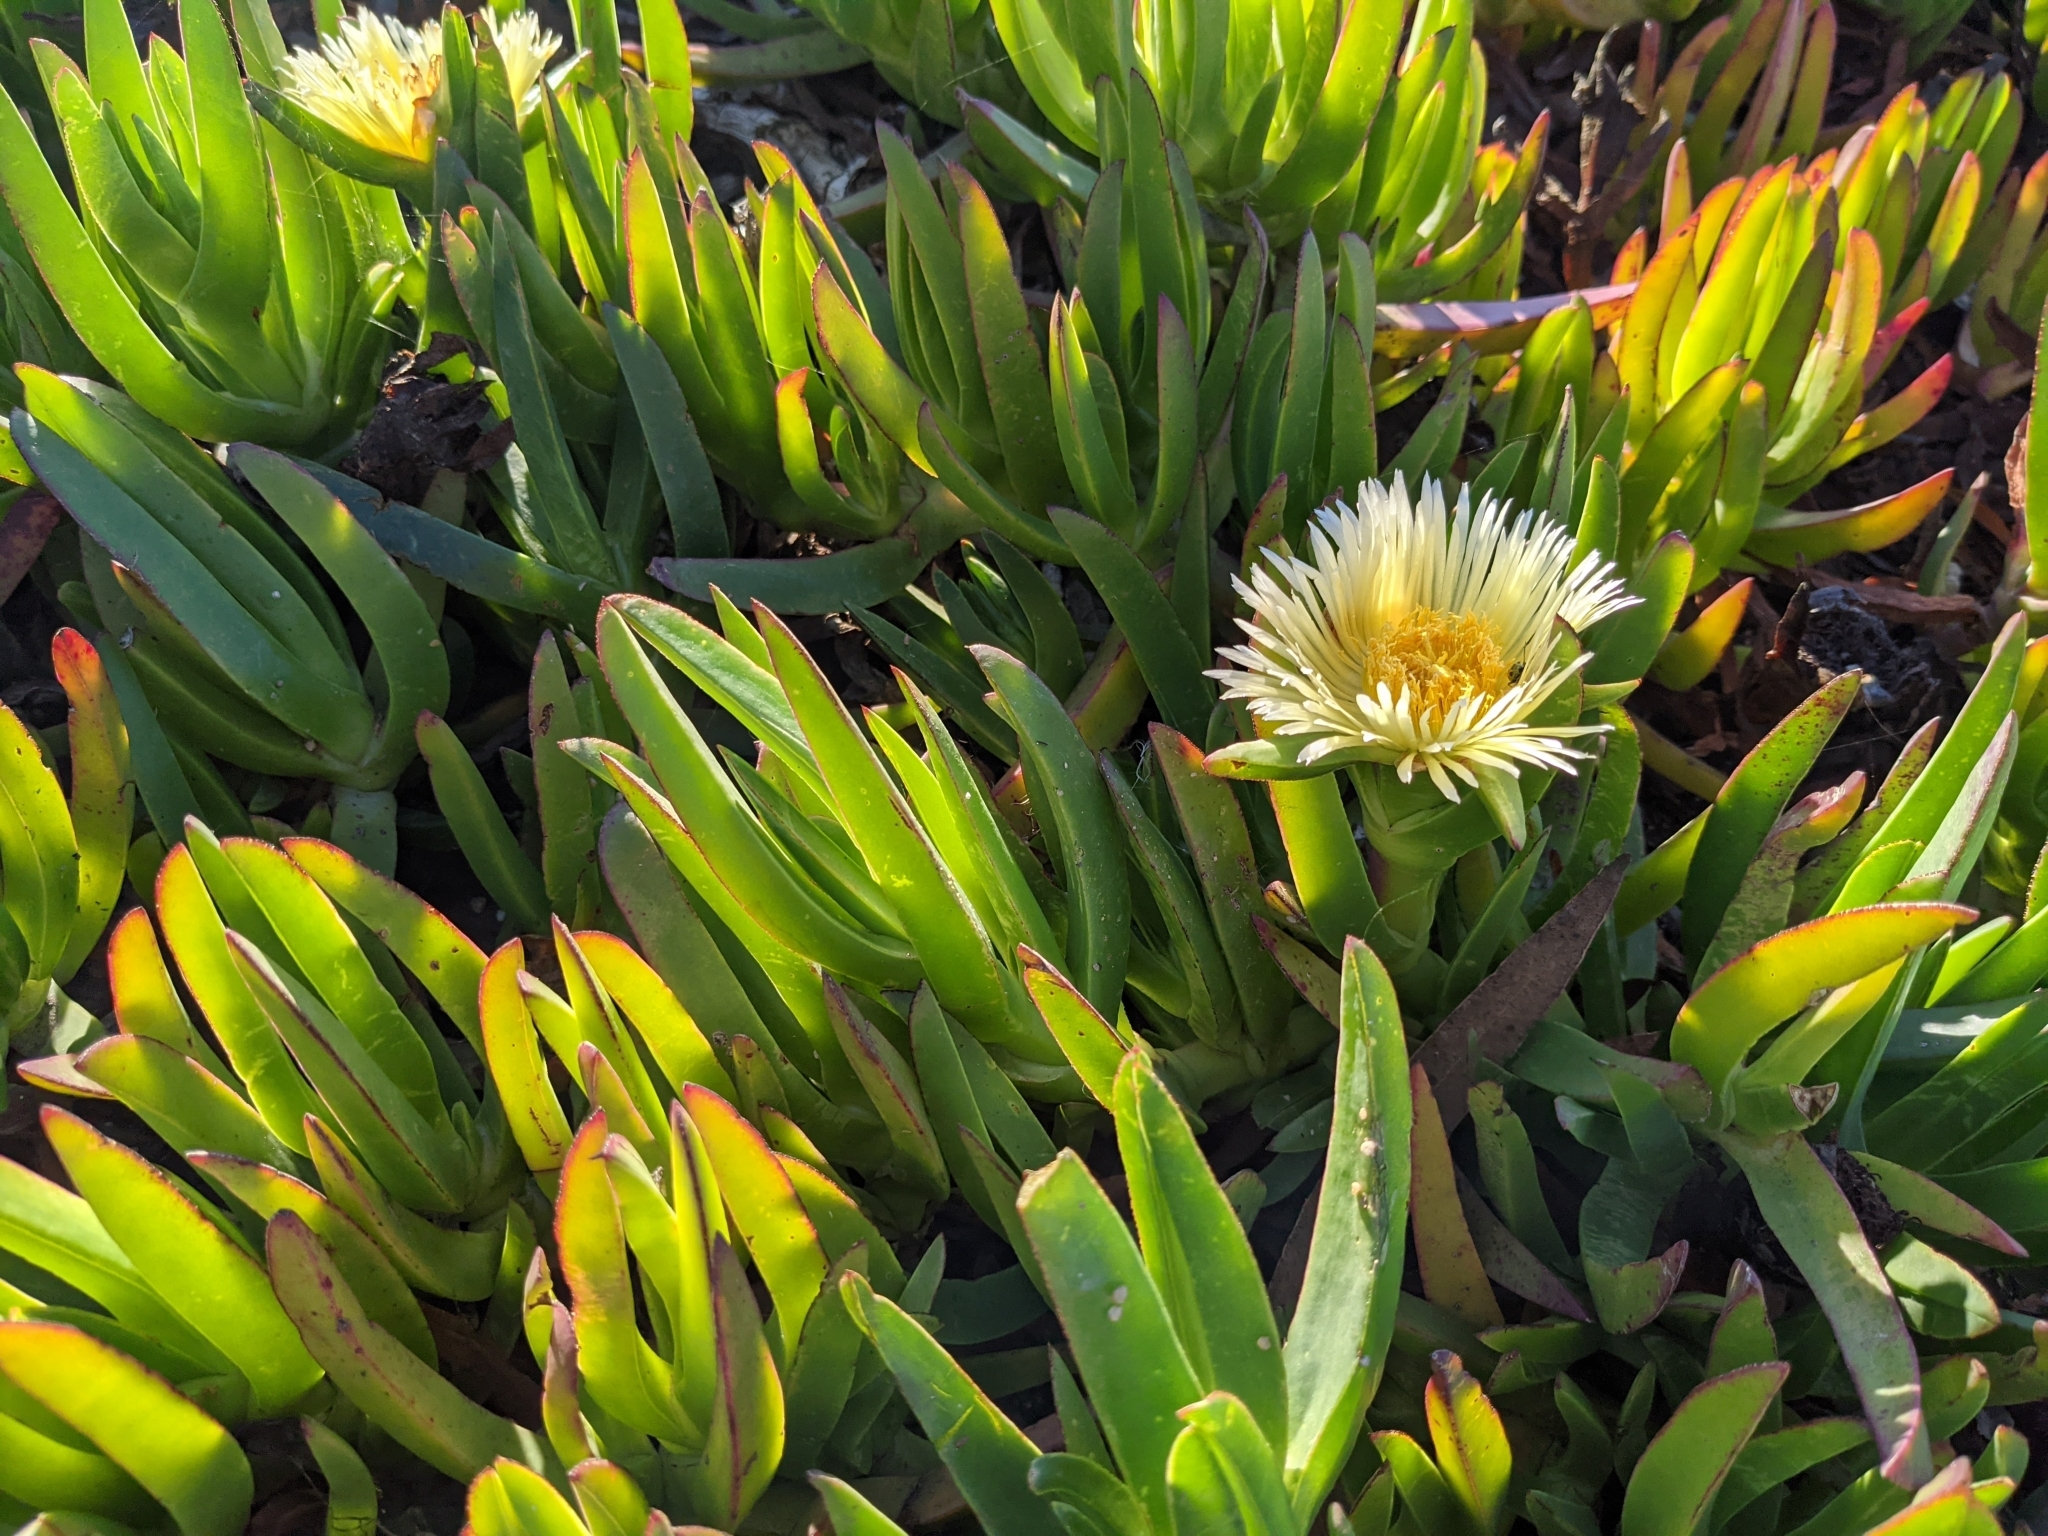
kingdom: Plantae
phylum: Tracheophyta
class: Magnoliopsida
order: Caryophyllales
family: Aizoaceae
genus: Carpobrotus
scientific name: Carpobrotus edulis
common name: Hottentot-fig
